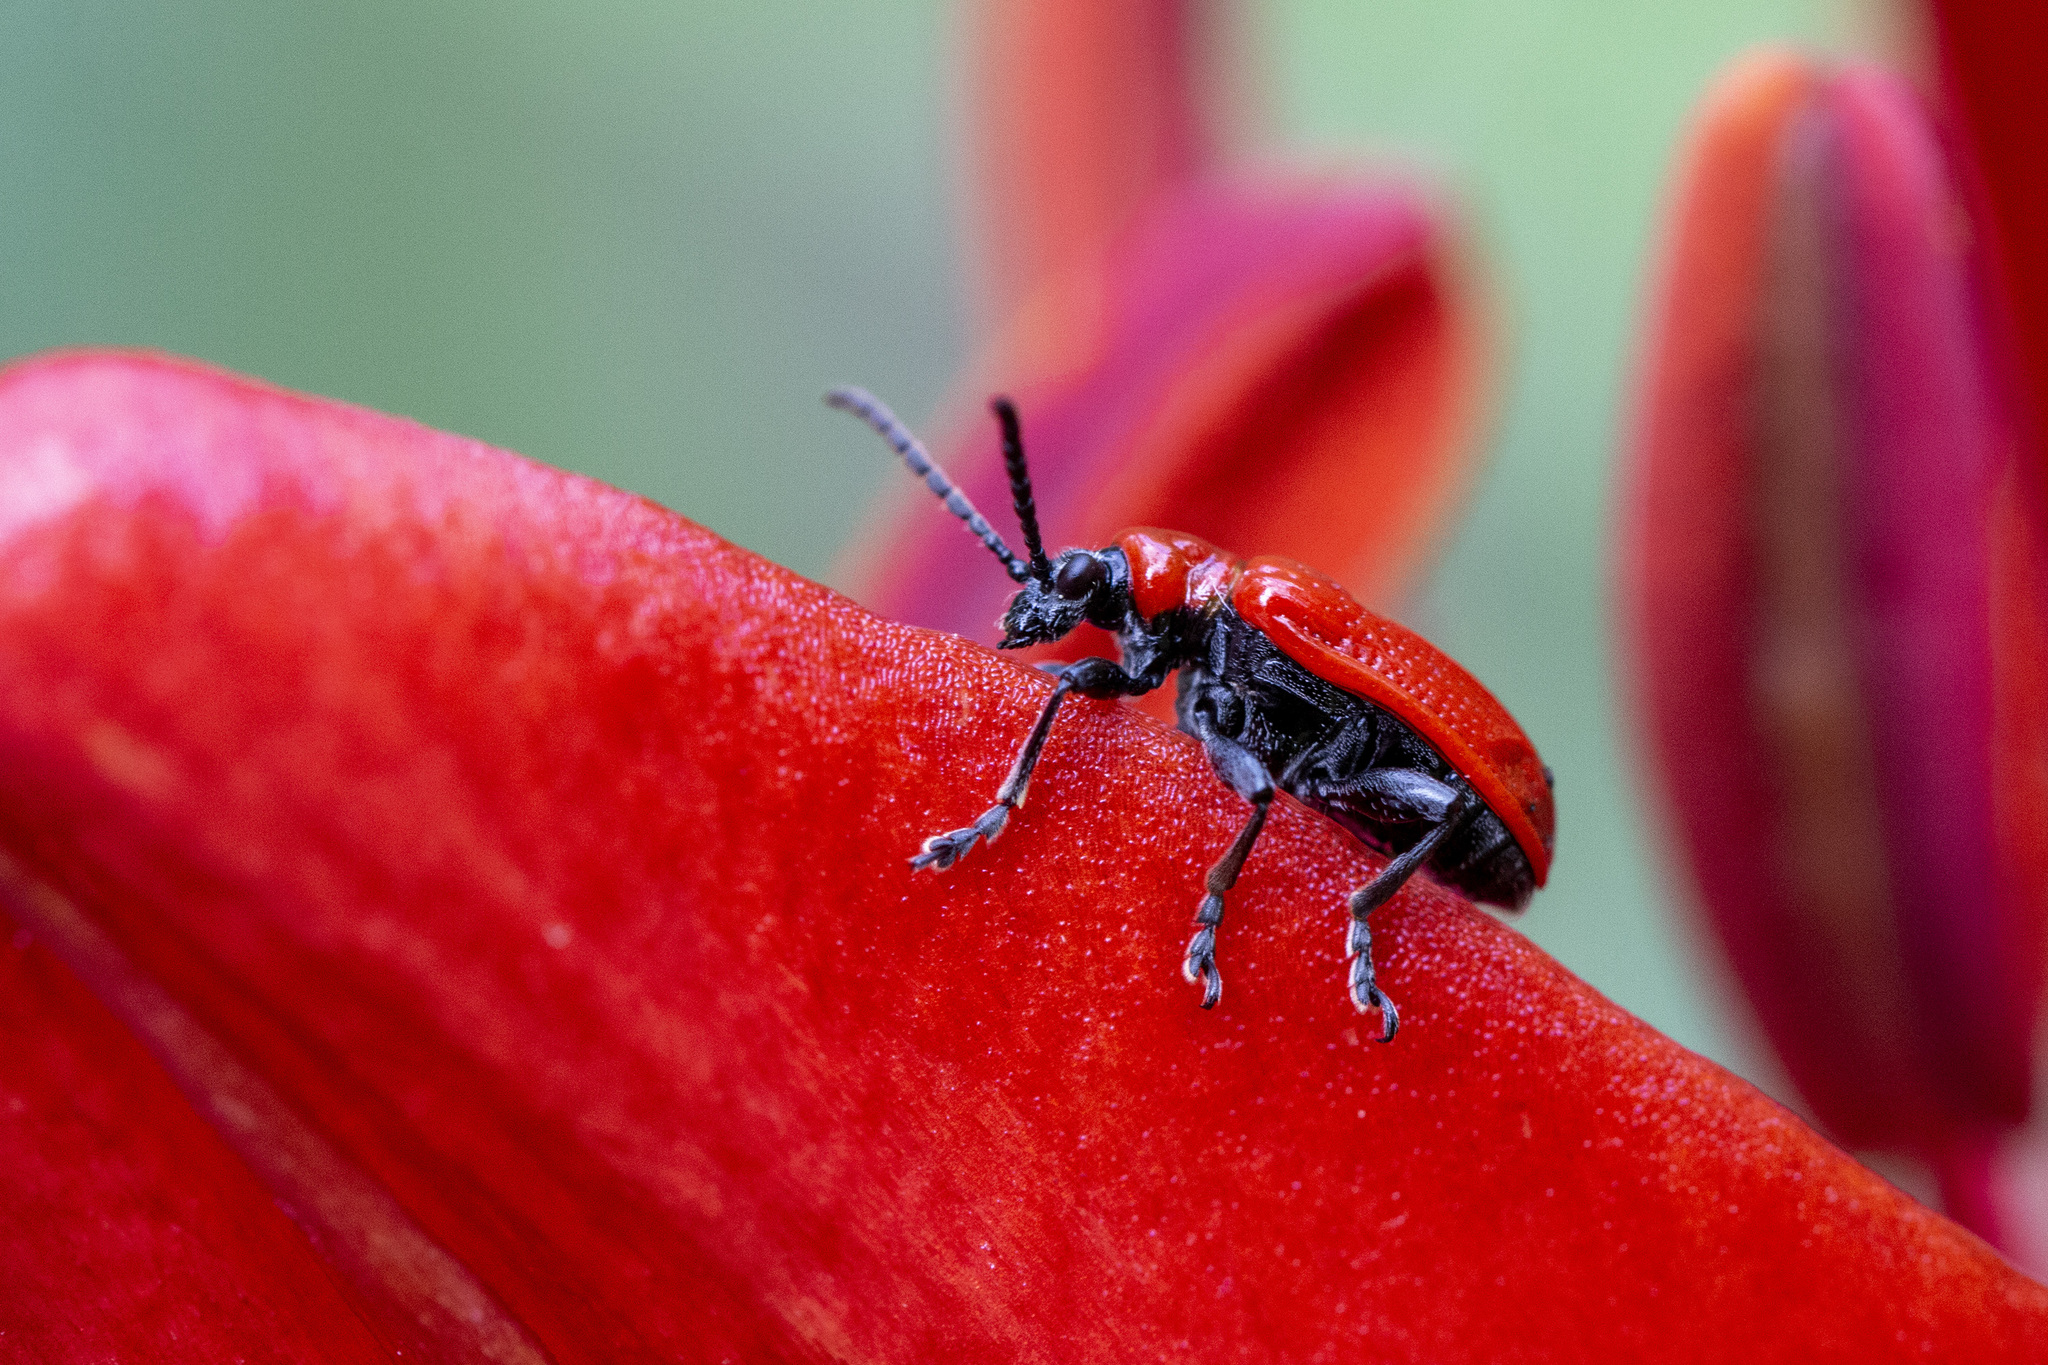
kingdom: Animalia
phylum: Arthropoda
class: Insecta
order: Coleoptera
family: Chrysomelidae
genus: Lilioceris
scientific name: Lilioceris lilii
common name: Lily beetle
